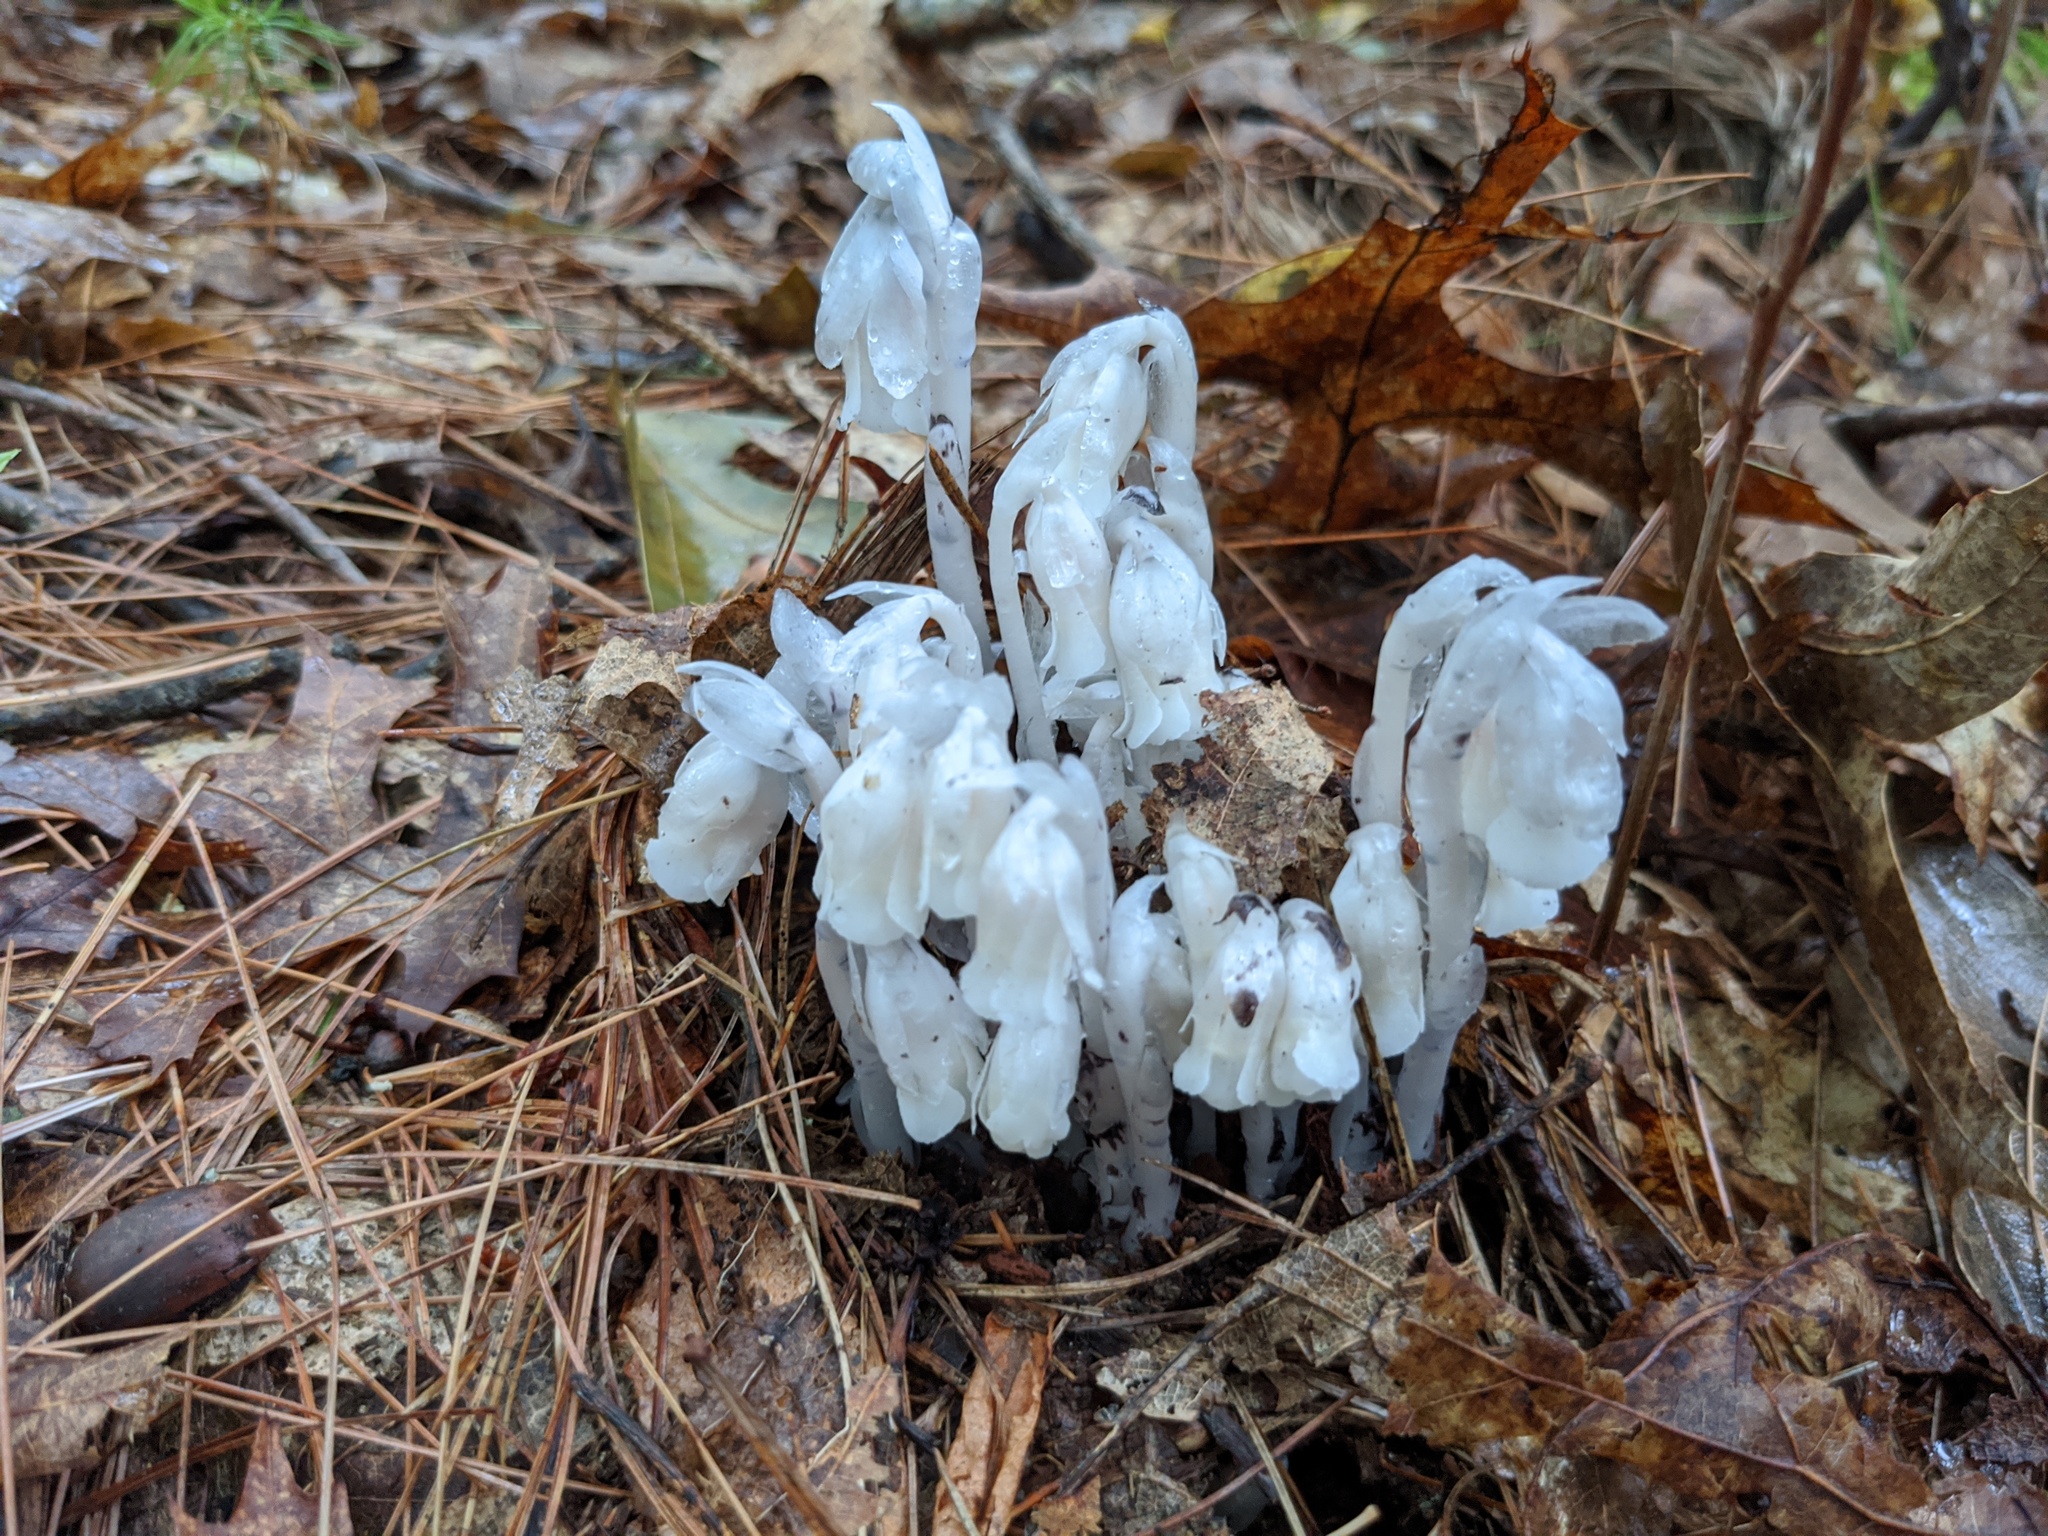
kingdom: Plantae
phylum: Tracheophyta
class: Magnoliopsida
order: Ericales
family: Ericaceae
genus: Monotropa
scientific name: Monotropa uniflora
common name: Convulsion root
